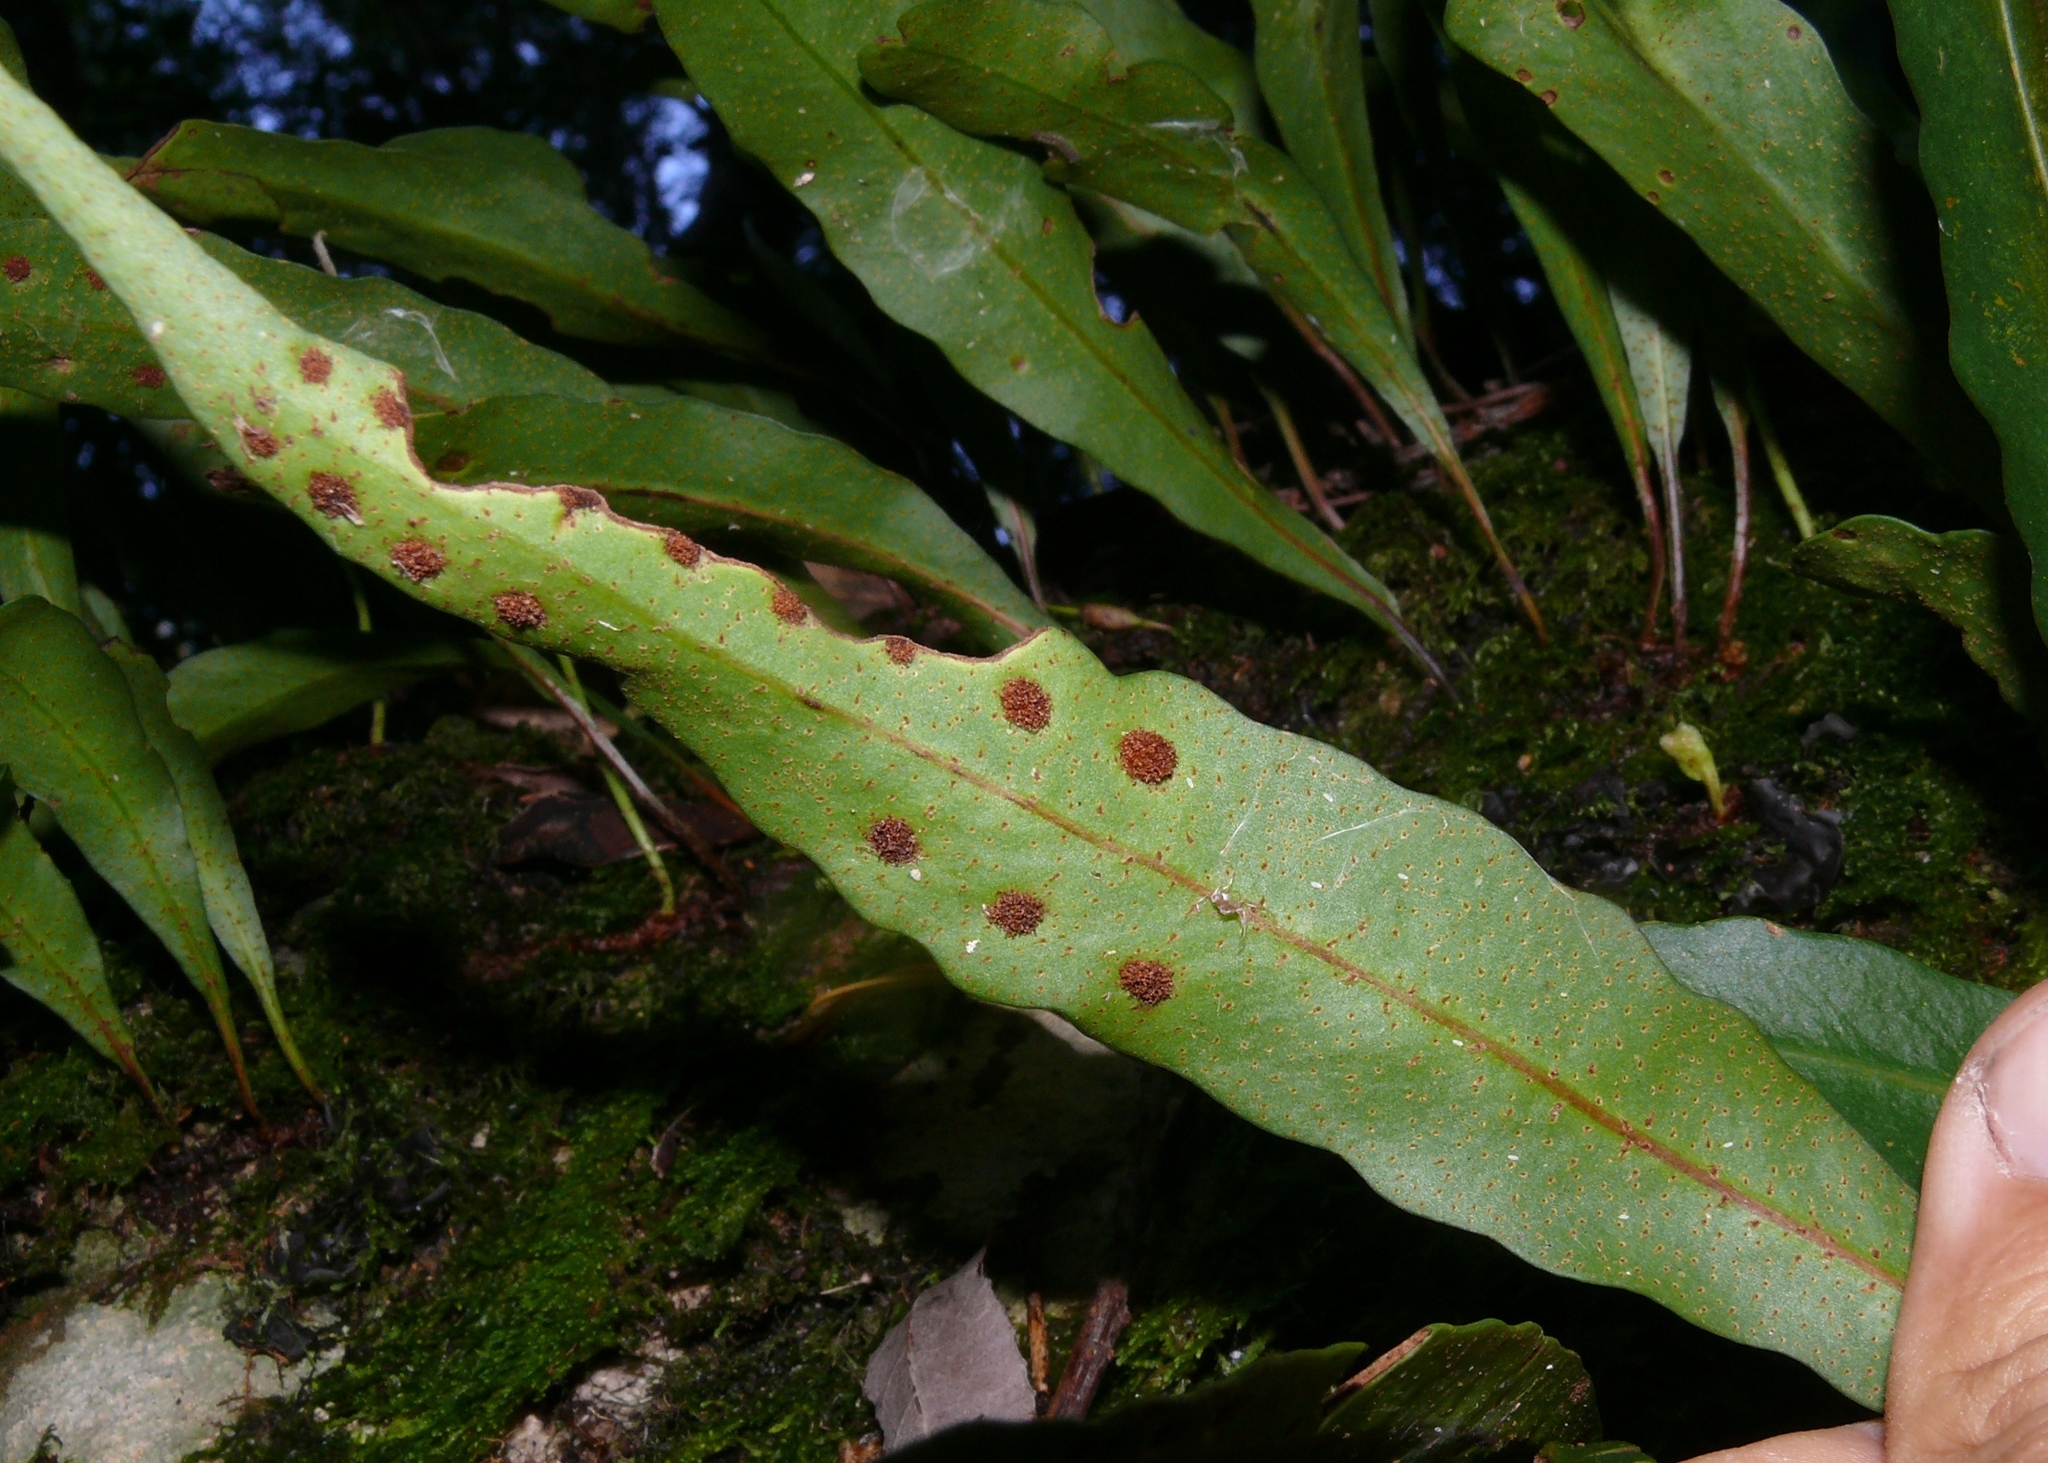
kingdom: Plantae
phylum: Tracheophyta
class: Polypodiopsida
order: Polypodiales
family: Polypodiaceae
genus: Pleopeltis
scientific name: Pleopeltis macrocarpa
